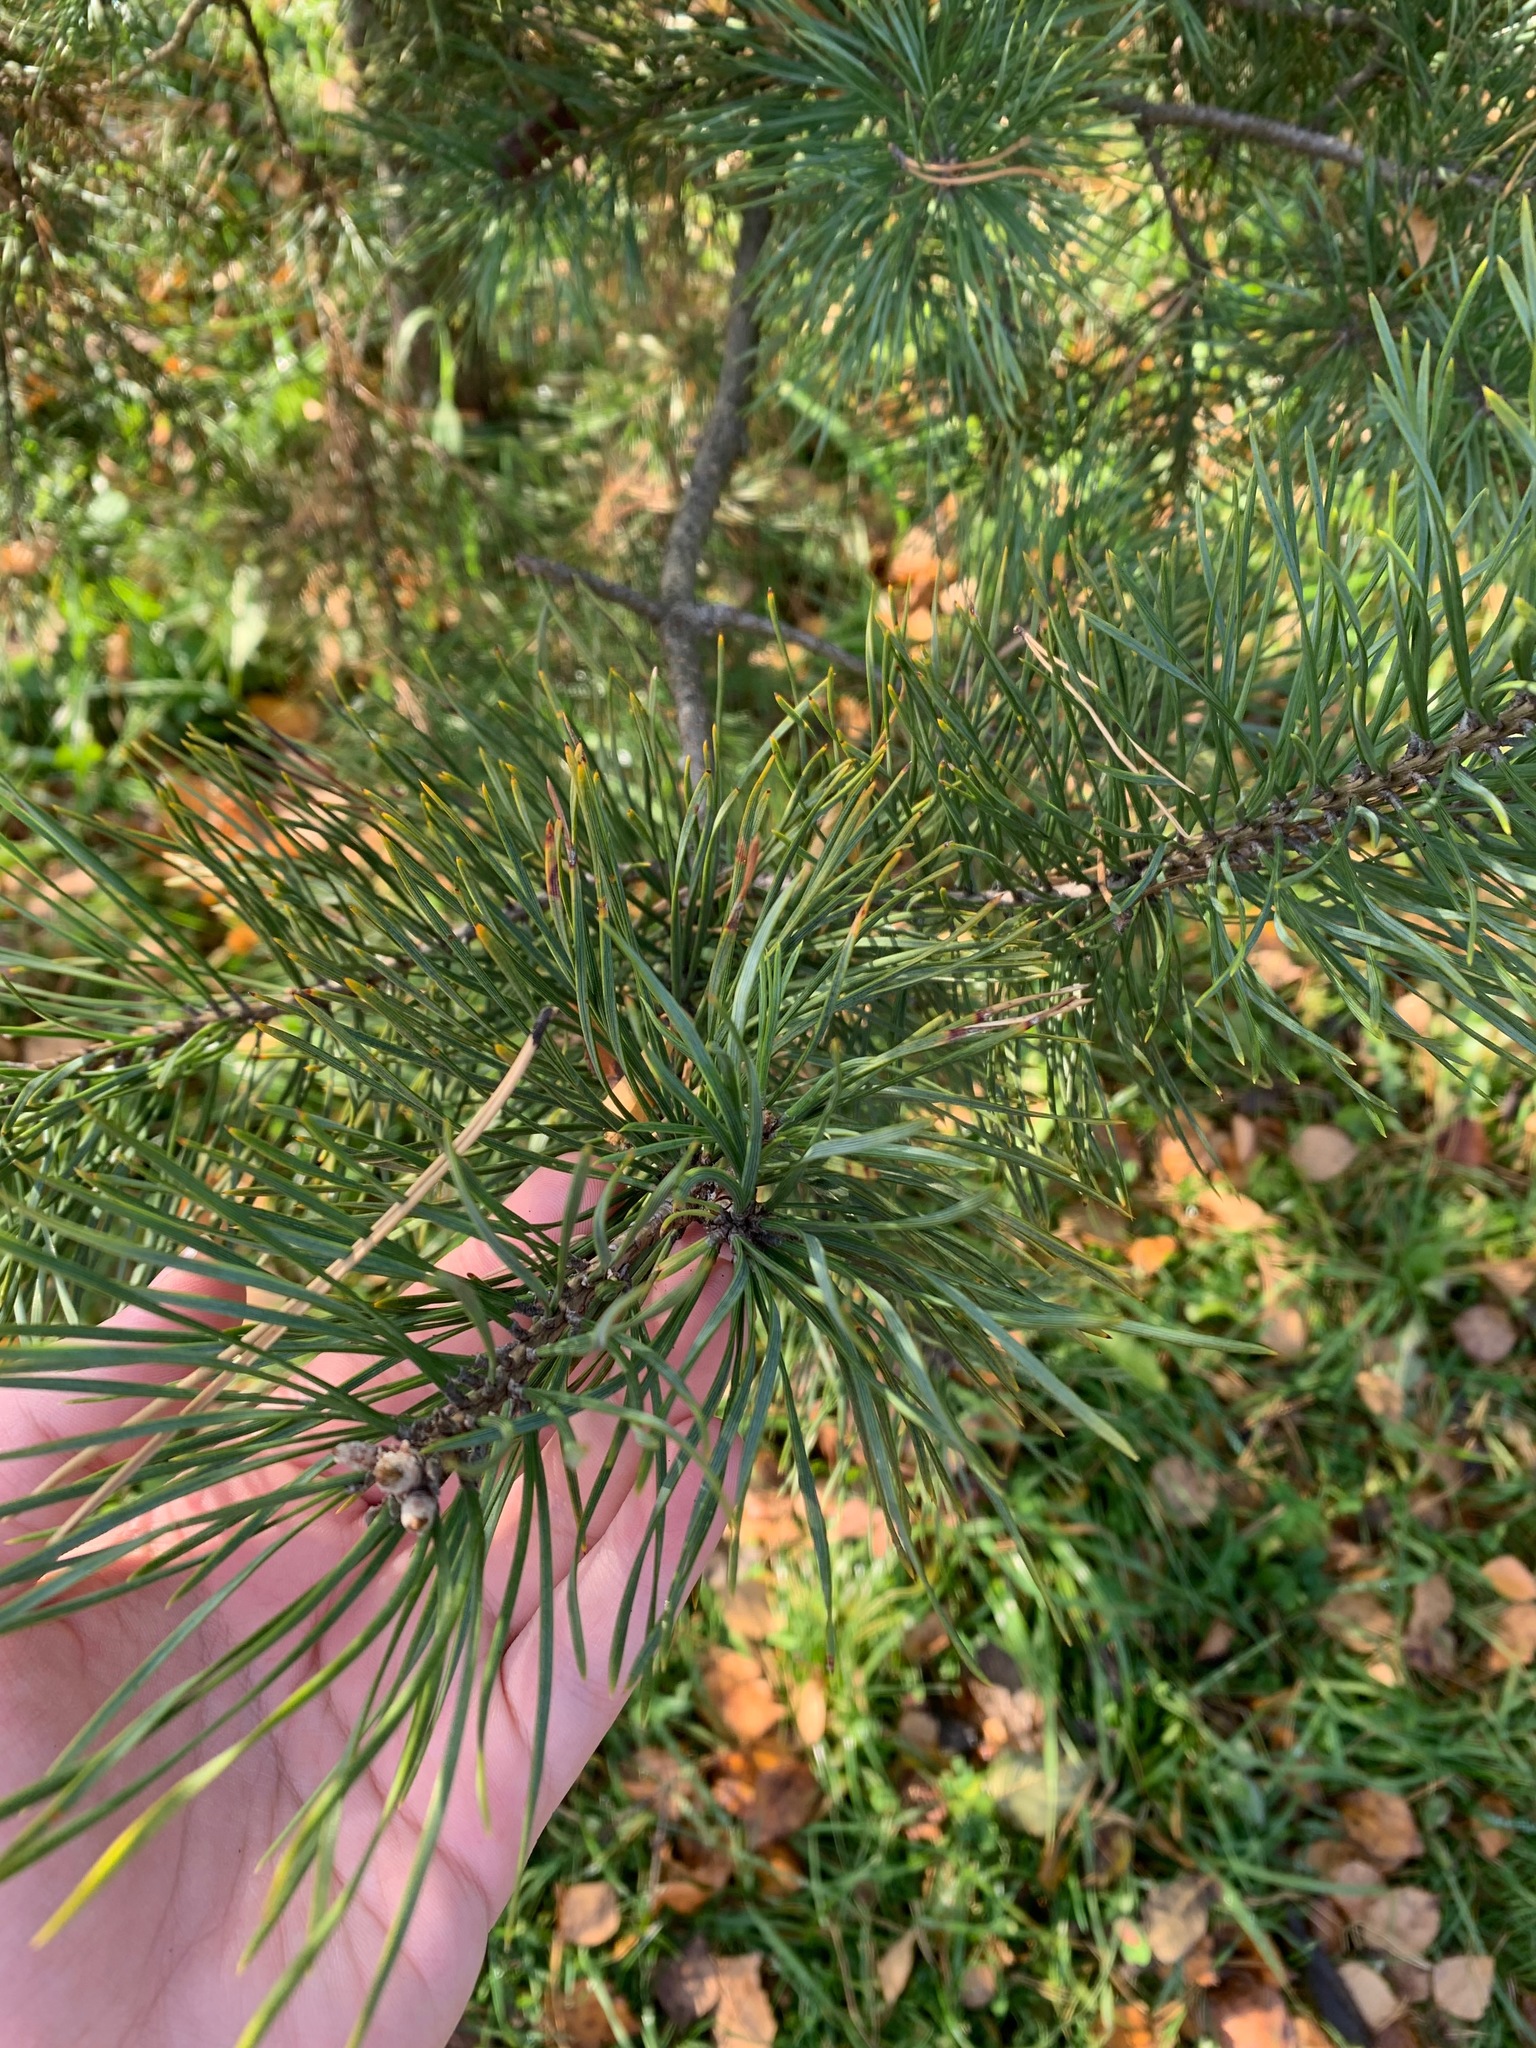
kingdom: Plantae
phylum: Tracheophyta
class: Pinopsida
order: Pinales
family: Pinaceae
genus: Pinus
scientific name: Pinus sylvestris
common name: Scots pine
